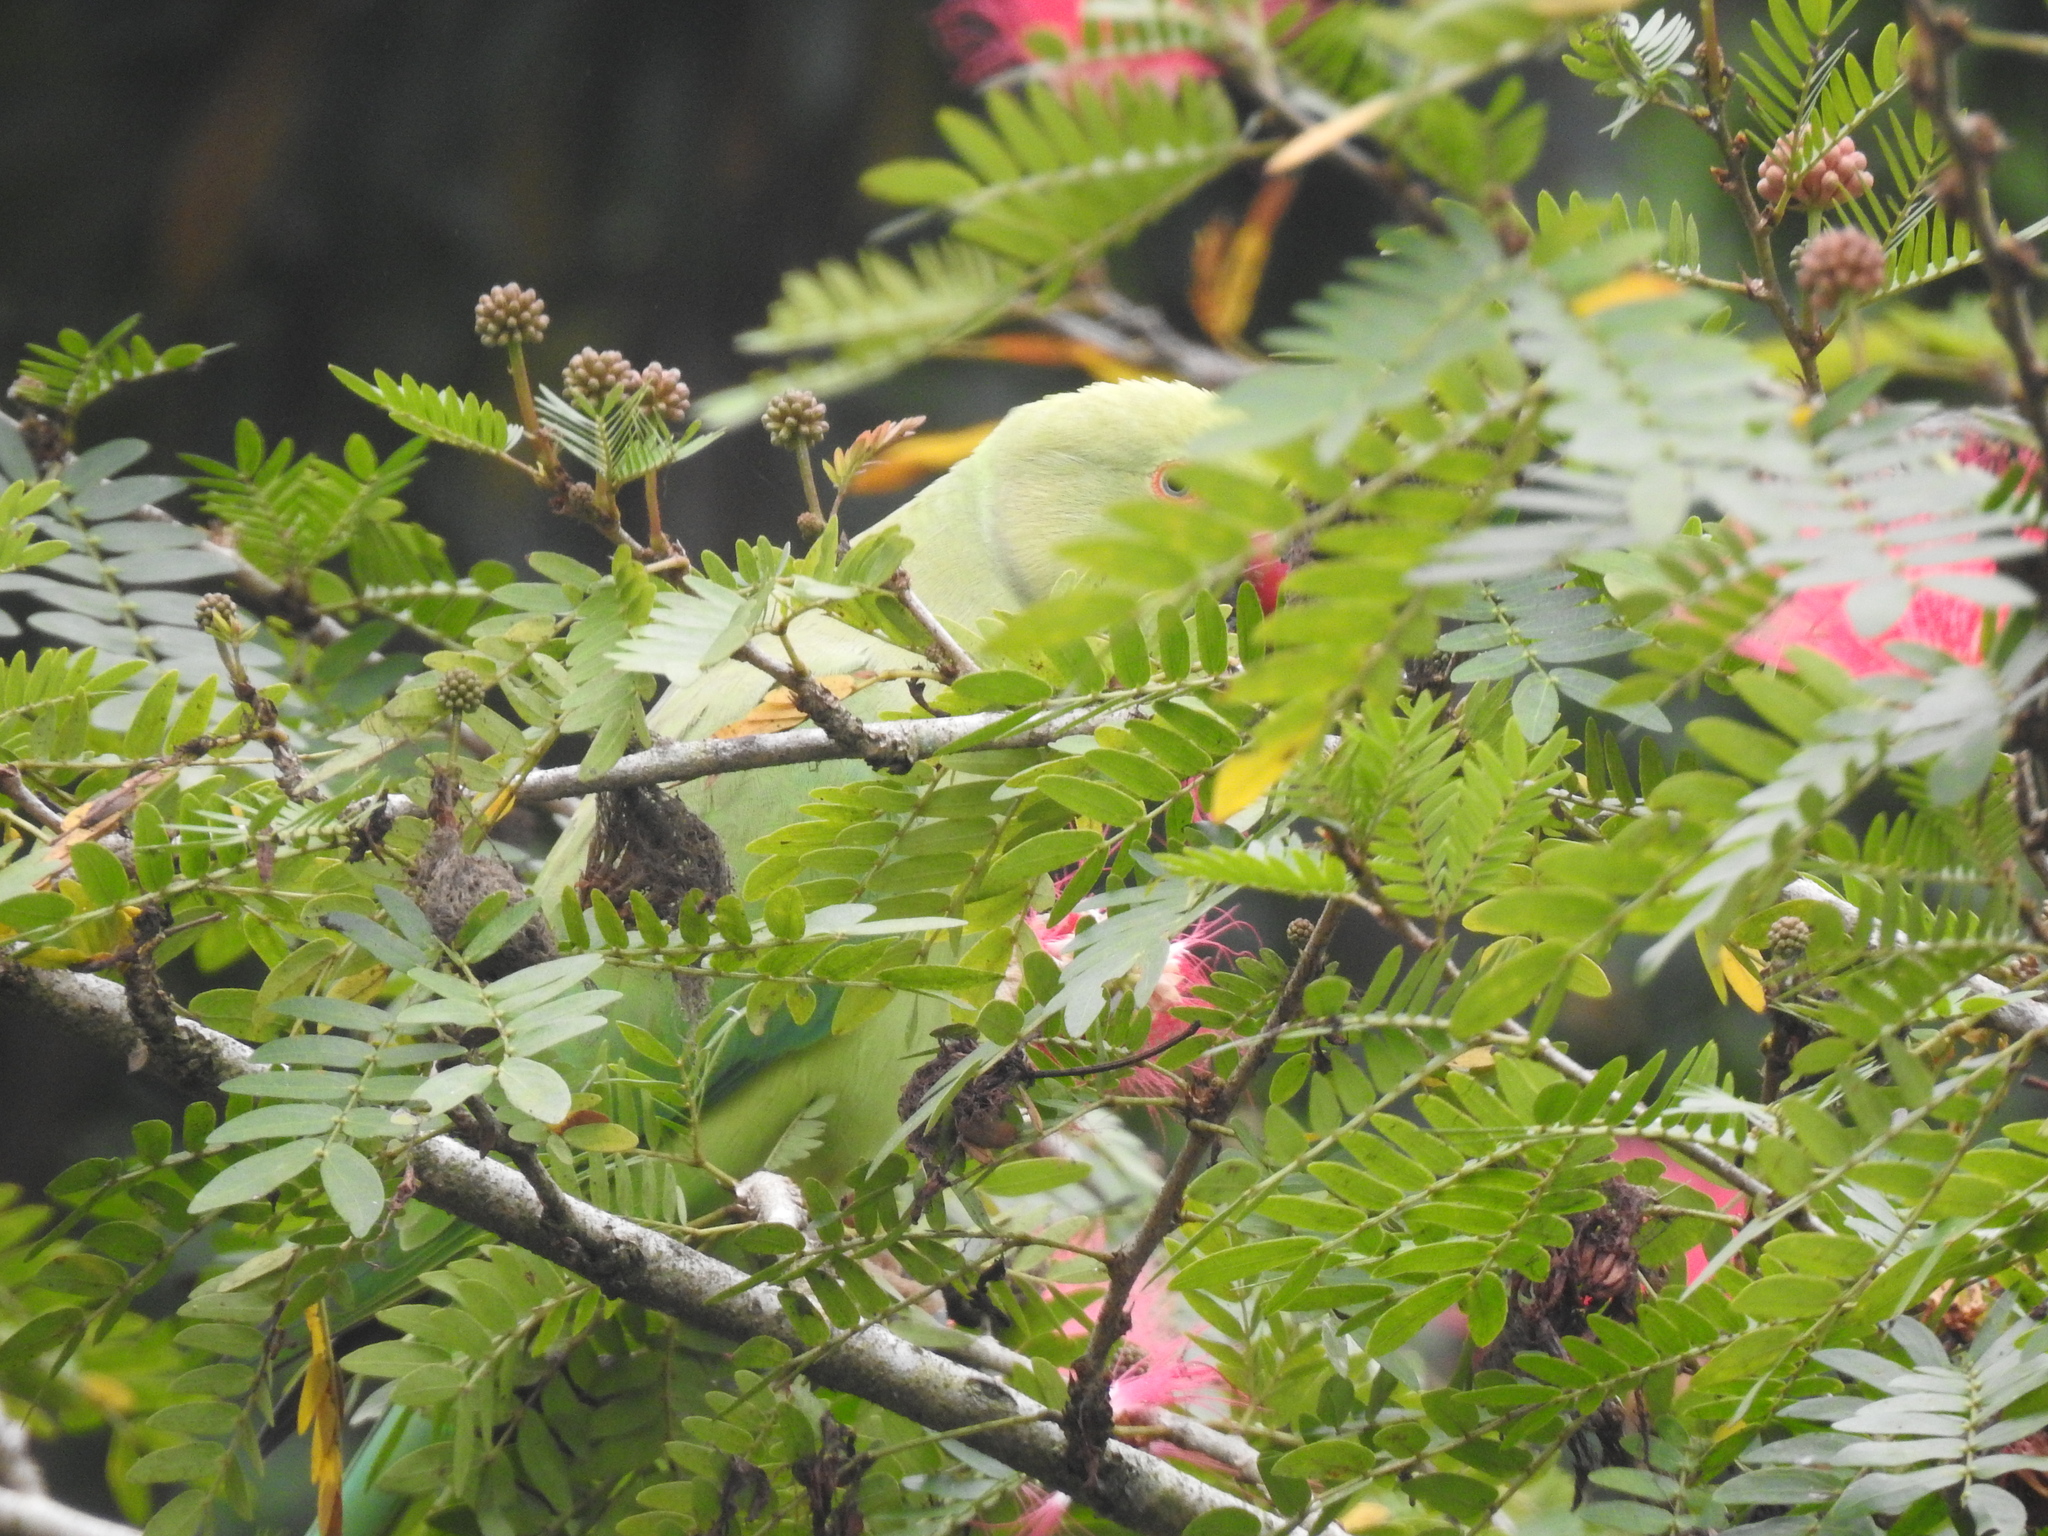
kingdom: Animalia
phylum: Chordata
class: Aves
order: Psittaciformes
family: Psittacidae
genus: Psittacula
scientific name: Psittacula krameri
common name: Rose-ringed parakeet
